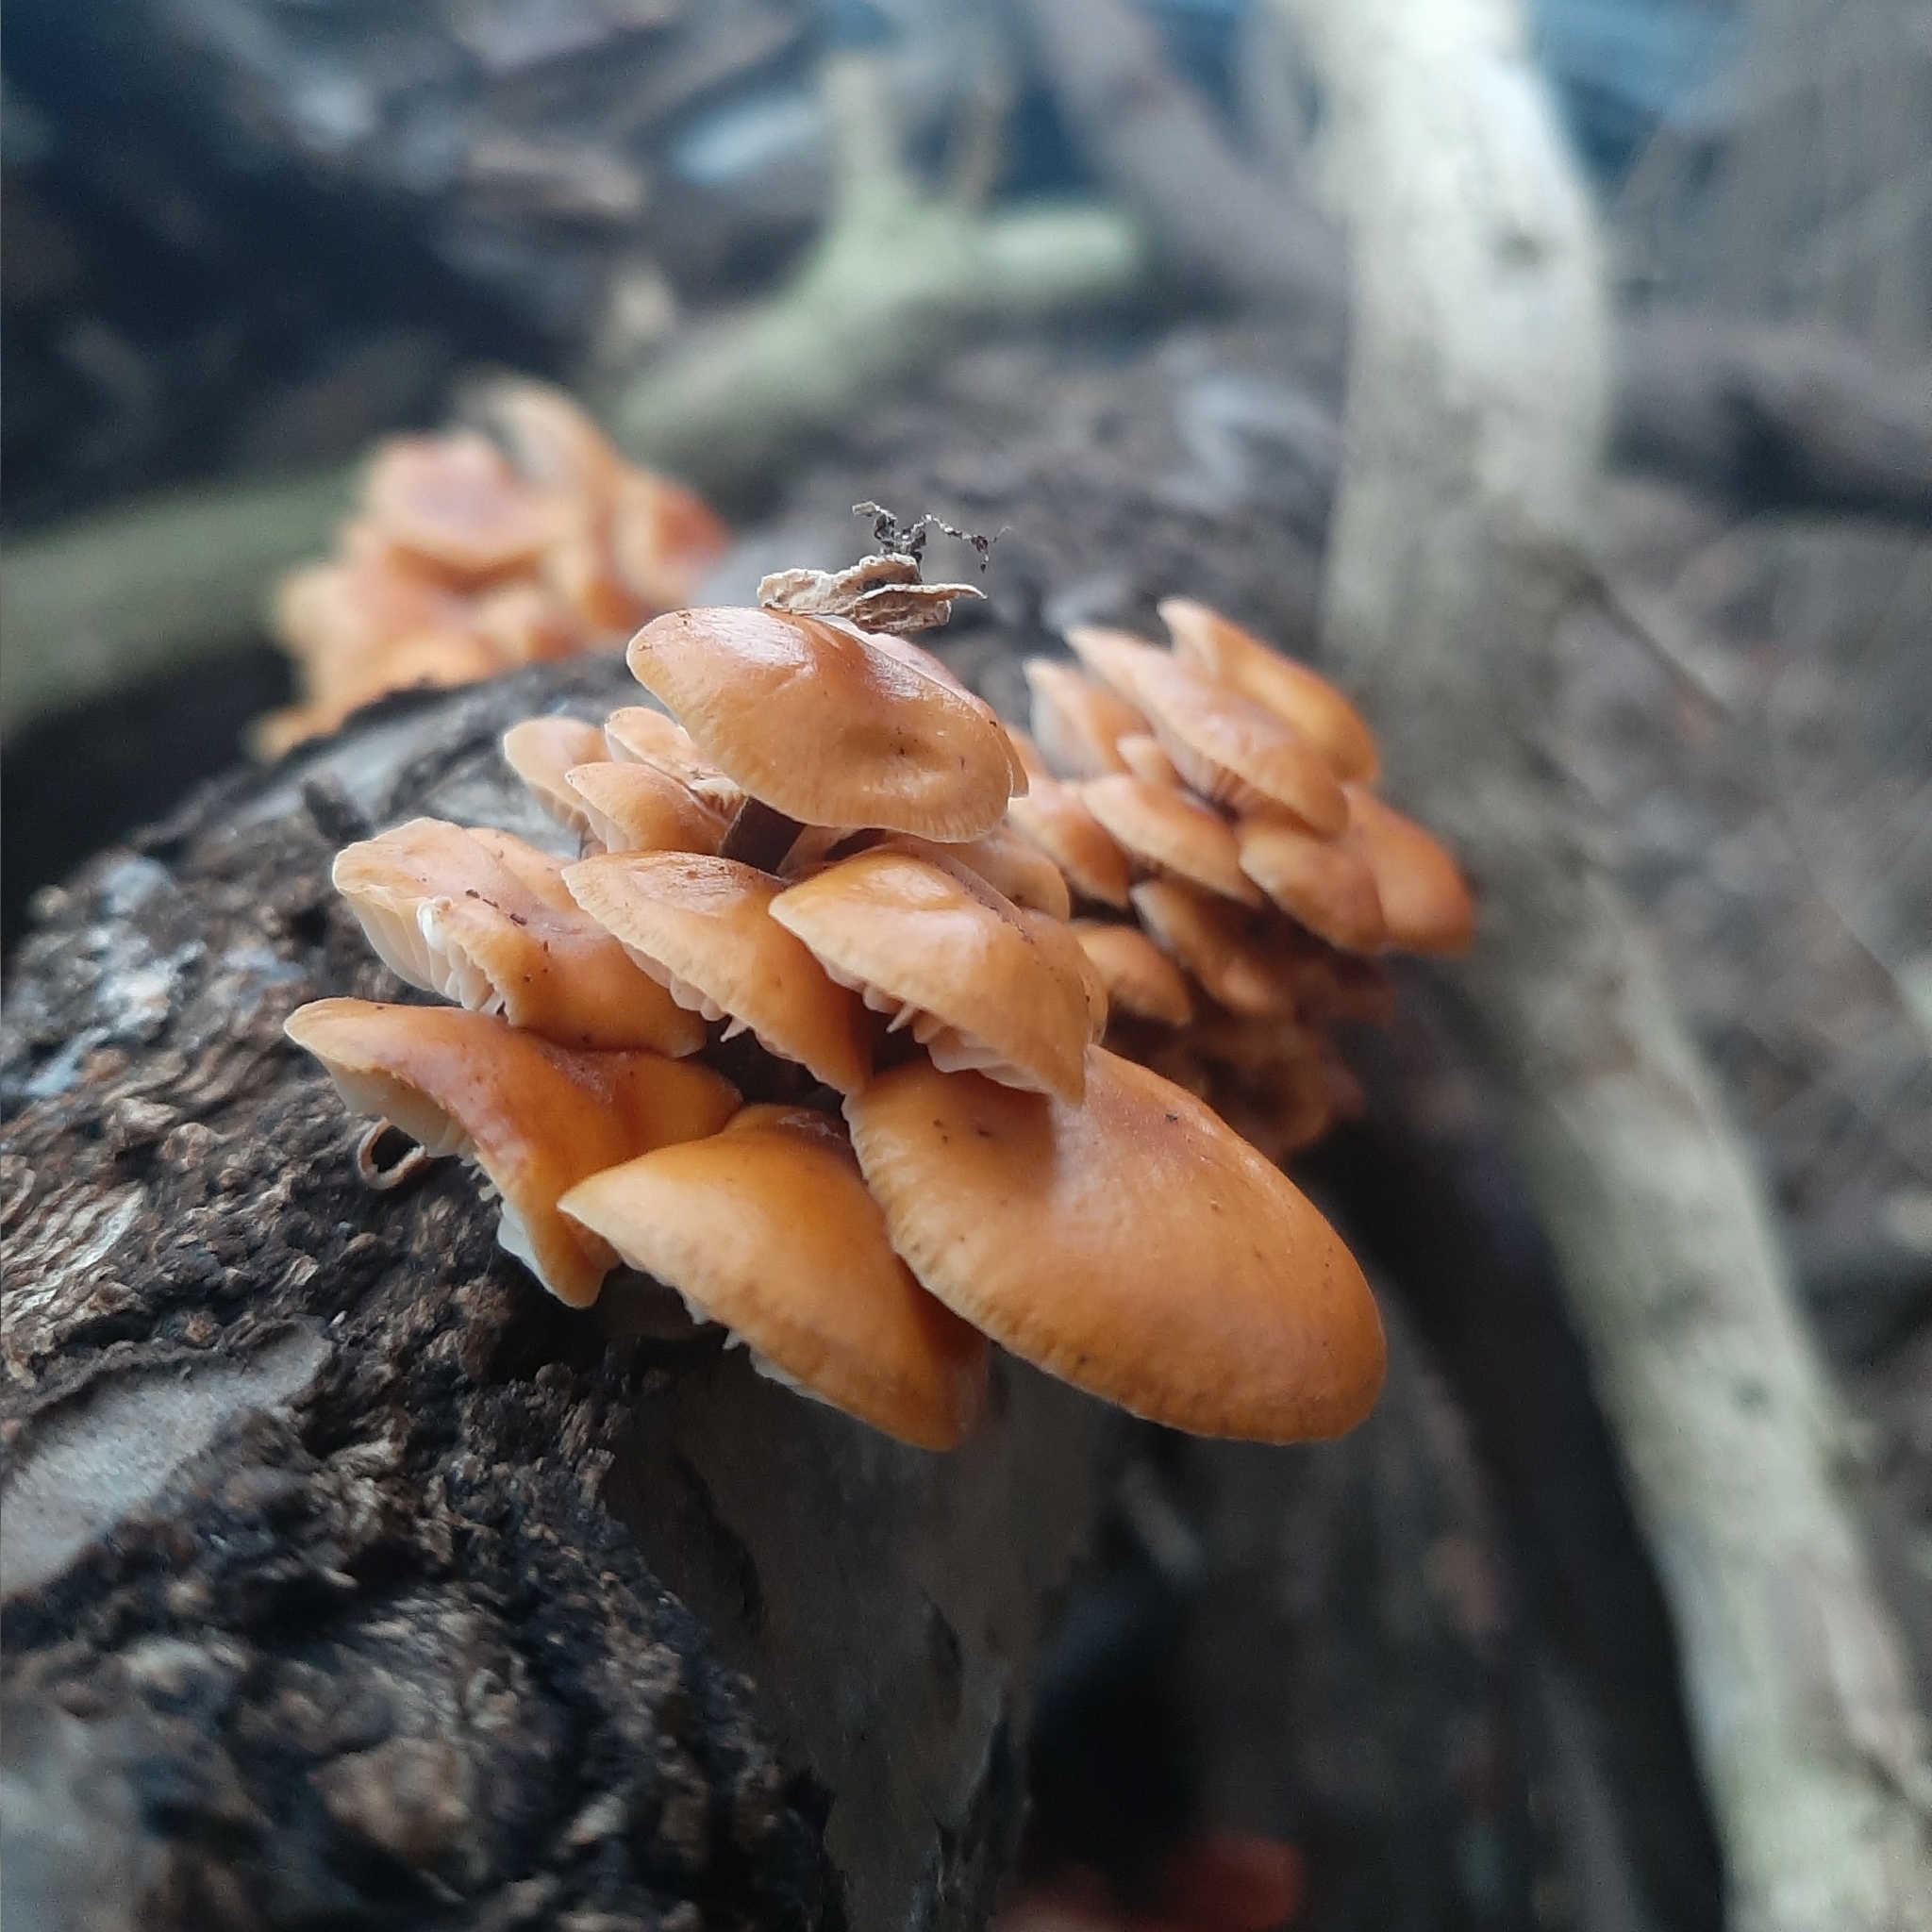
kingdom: Fungi
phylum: Basidiomycota
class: Agaricomycetes
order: Agaricales
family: Physalacriaceae
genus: Flammulina
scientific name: Flammulina
